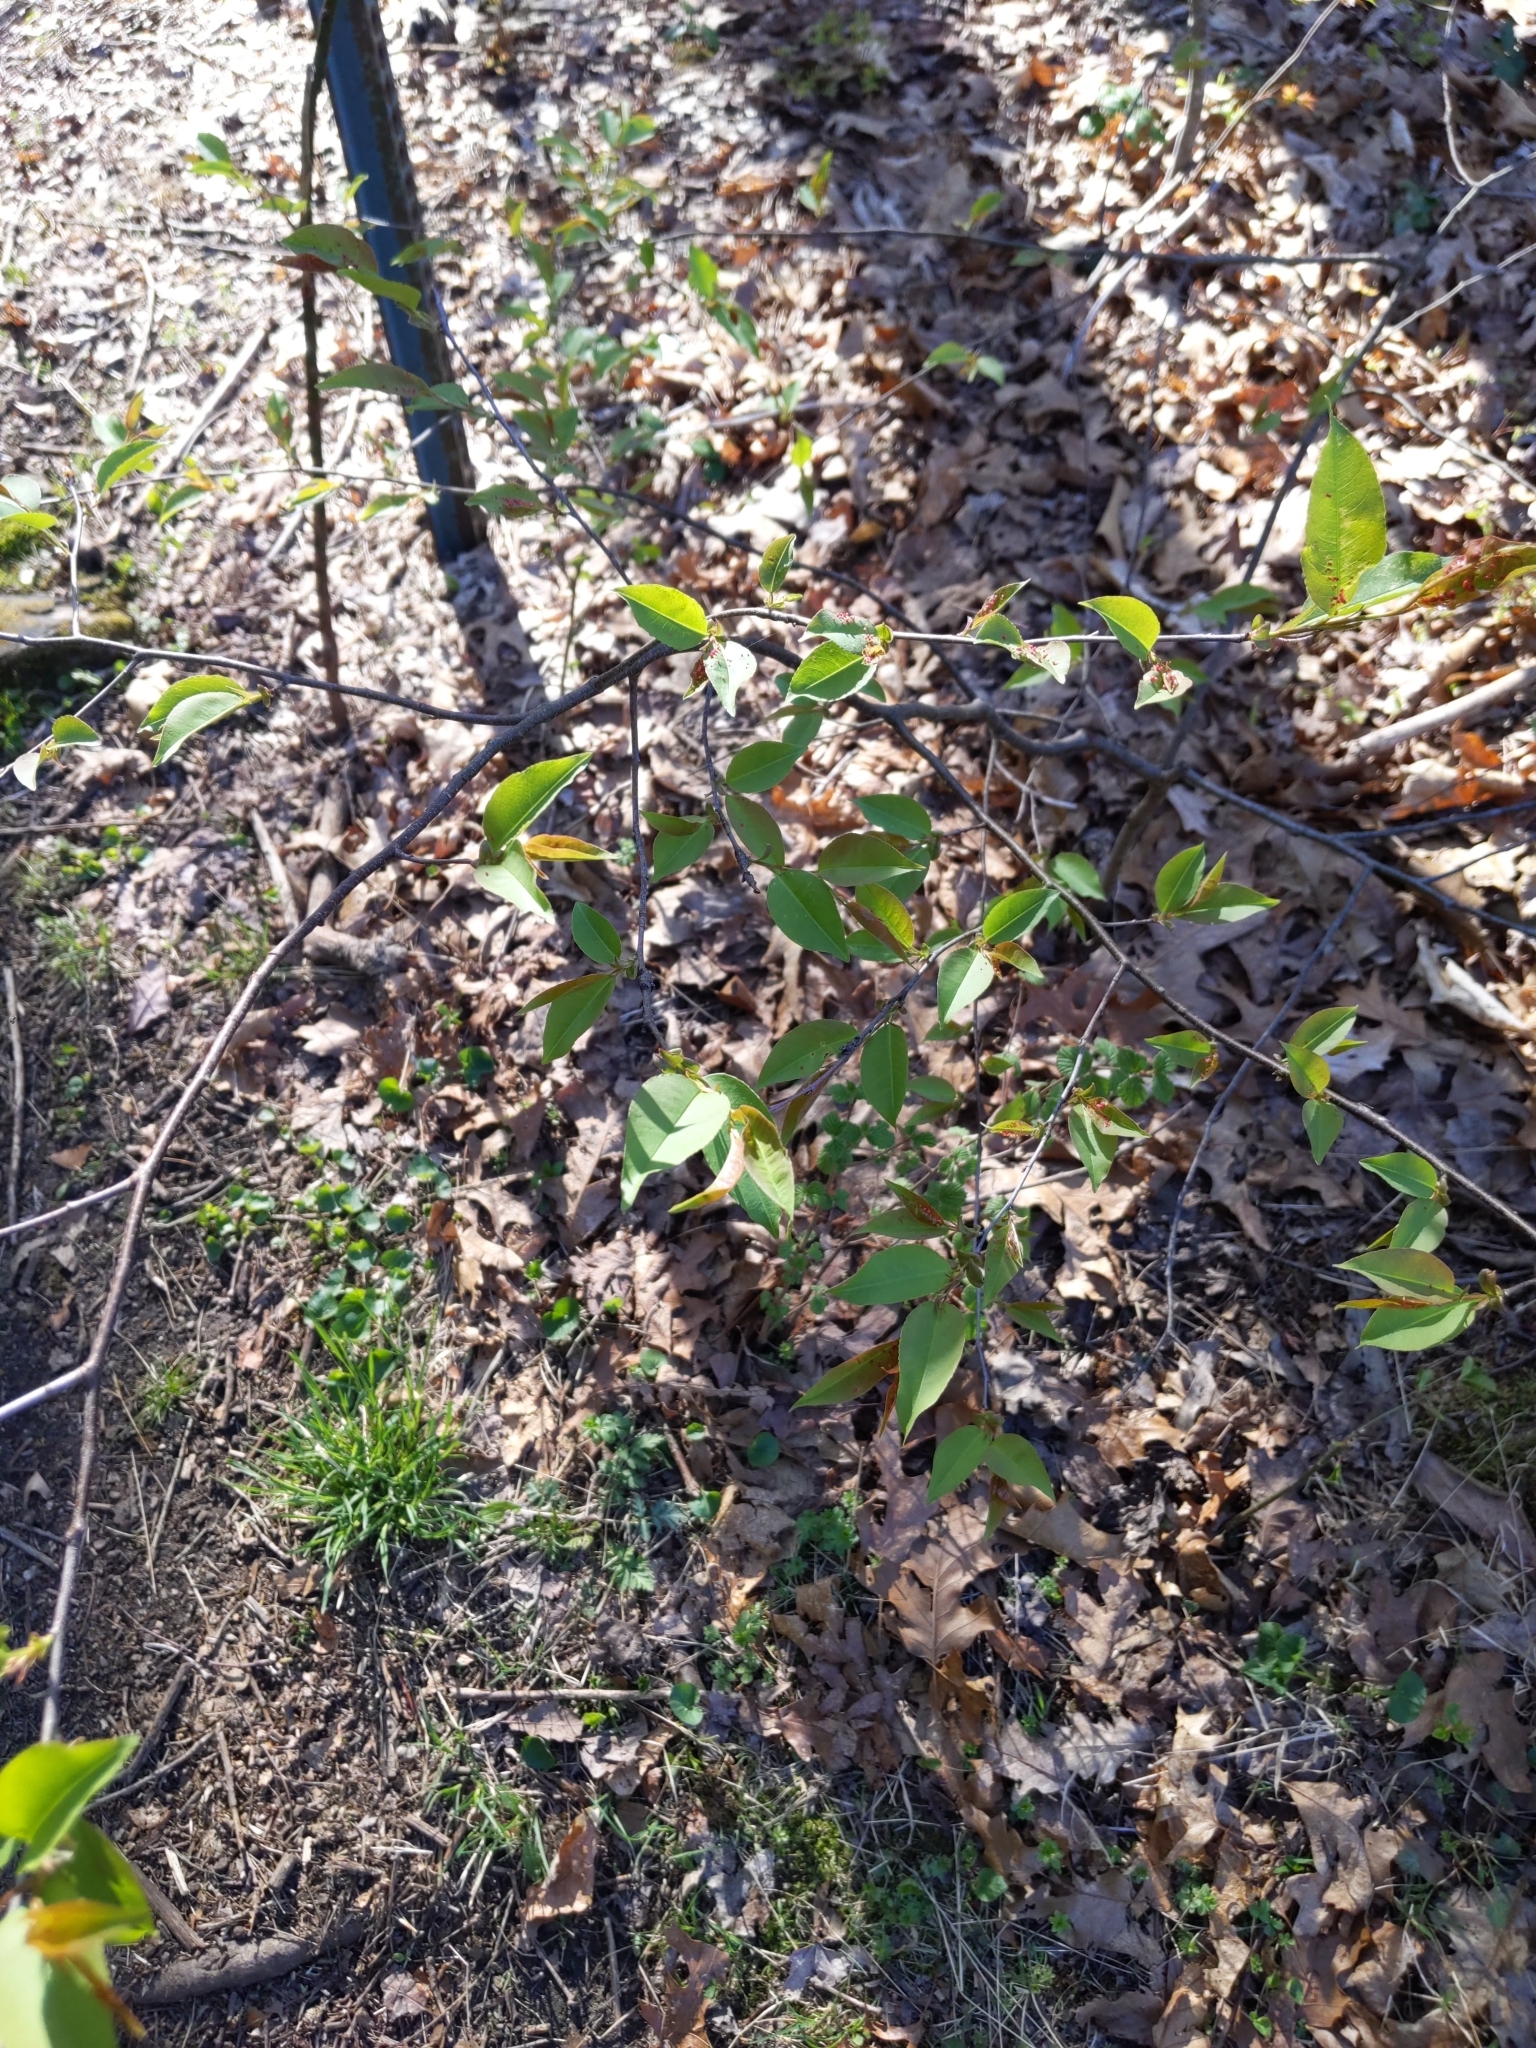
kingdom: Plantae
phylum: Tracheophyta
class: Magnoliopsida
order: Rosales
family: Rosaceae
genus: Prunus
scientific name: Prunus serotina
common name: Black cherry
